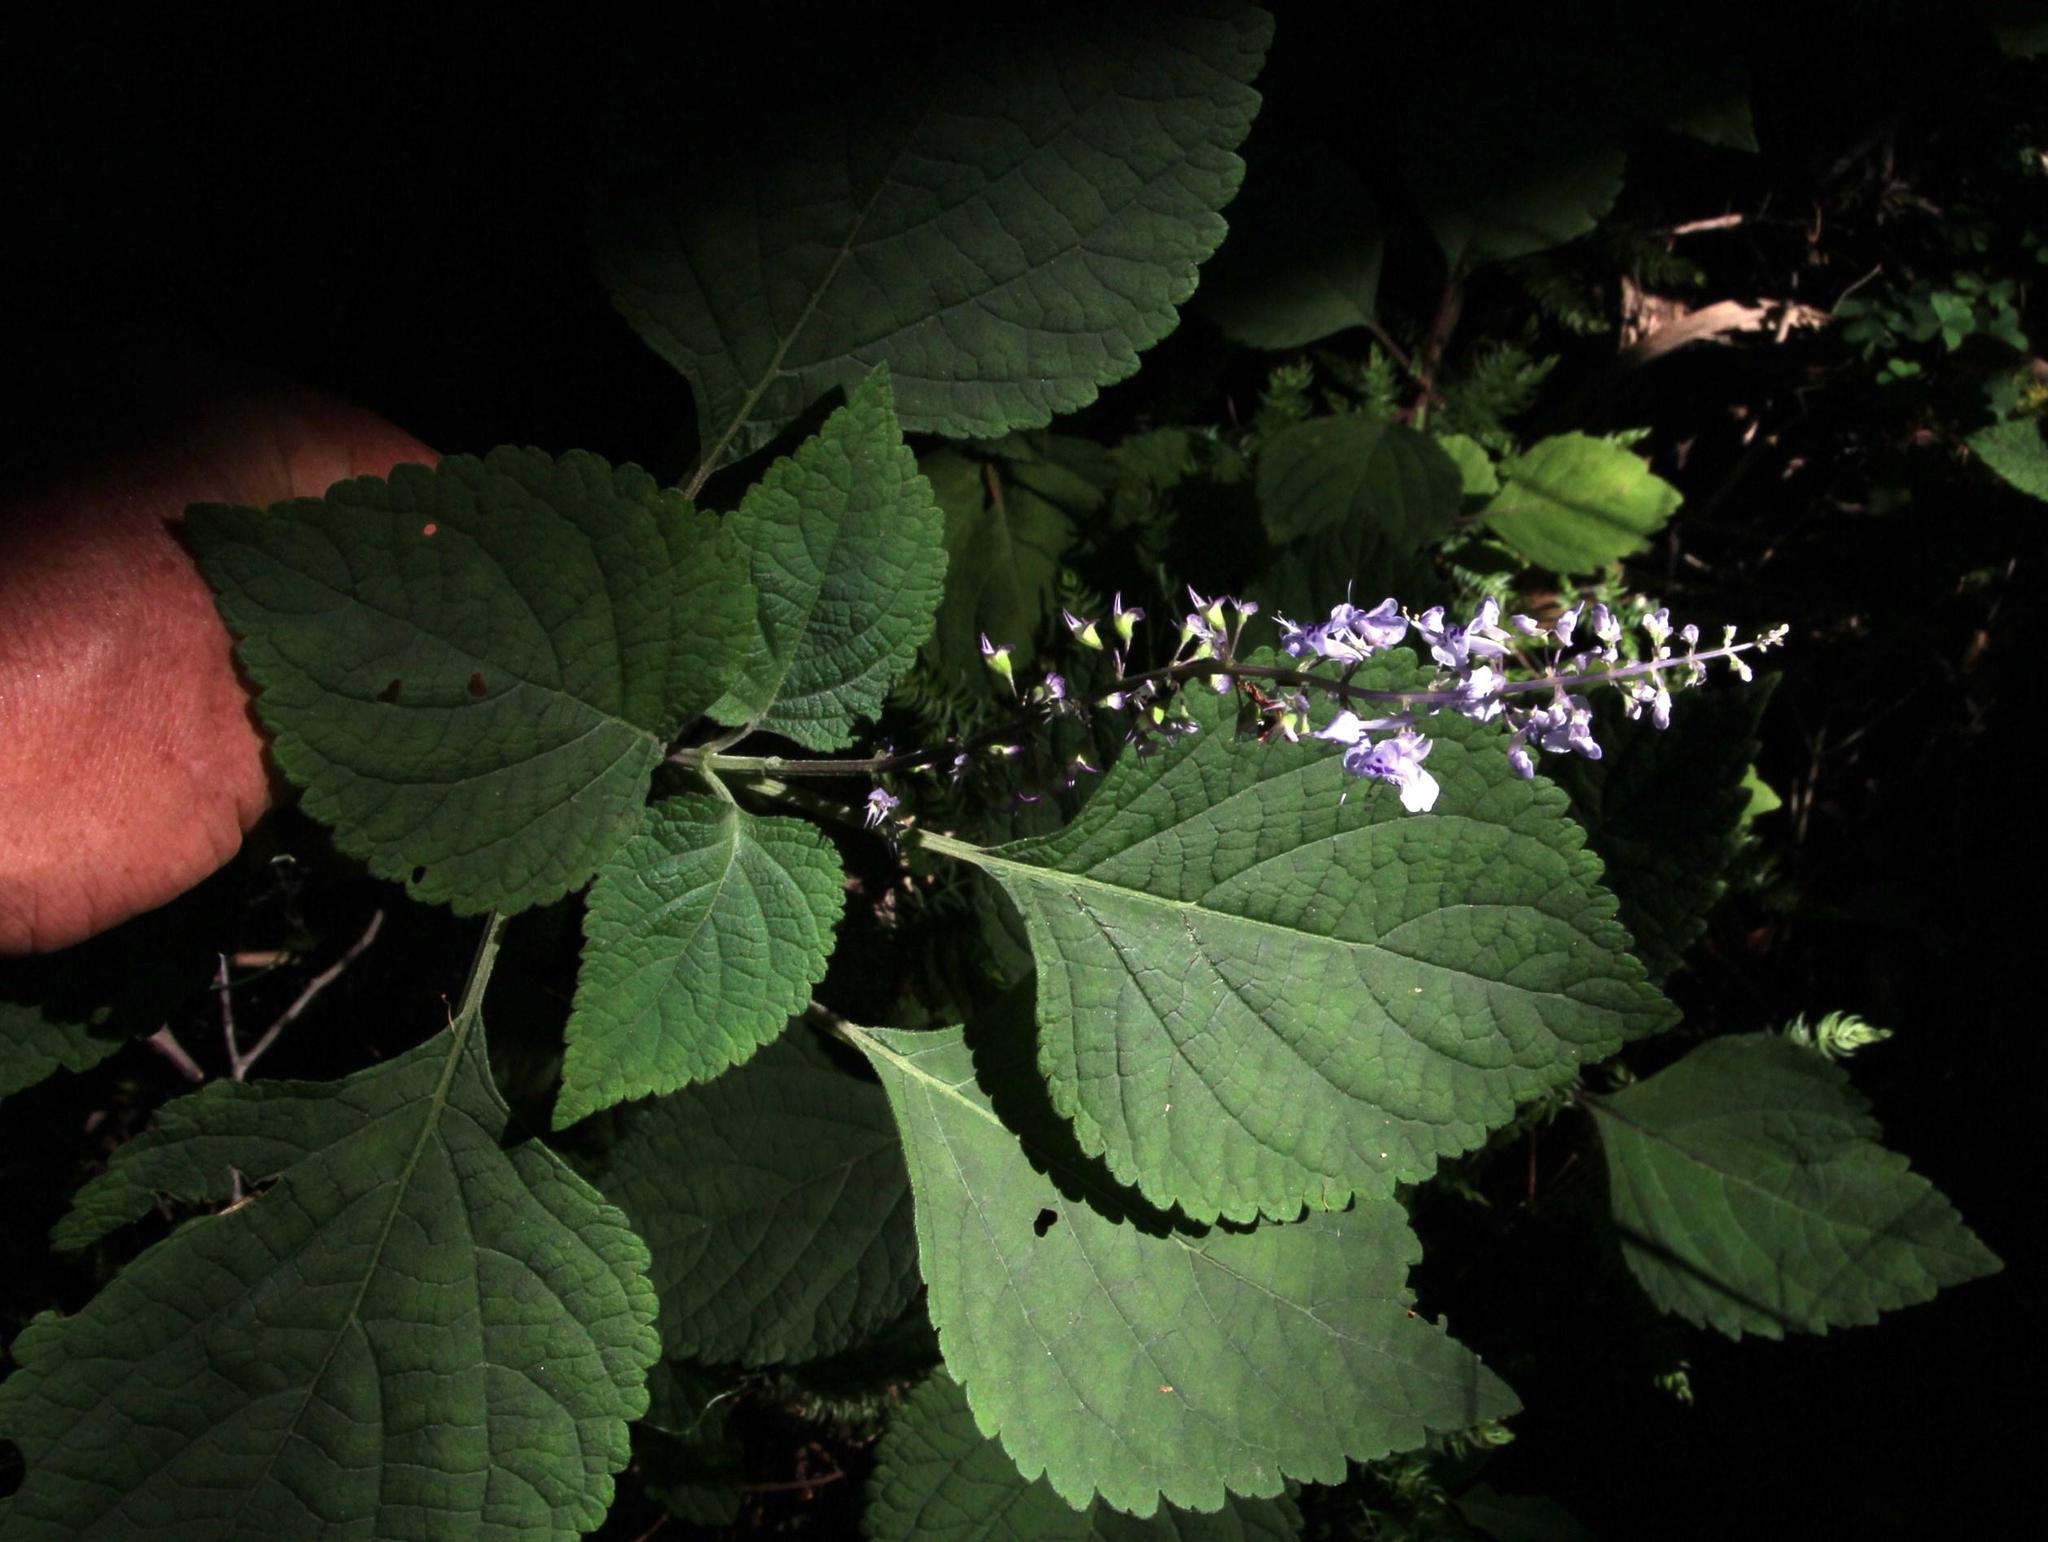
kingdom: Plantae
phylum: Tracheophyta
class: Magnoliopsida
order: Lamiales
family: Lamiaceae
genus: Plectranthus
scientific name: Plectranthus fruticosus
